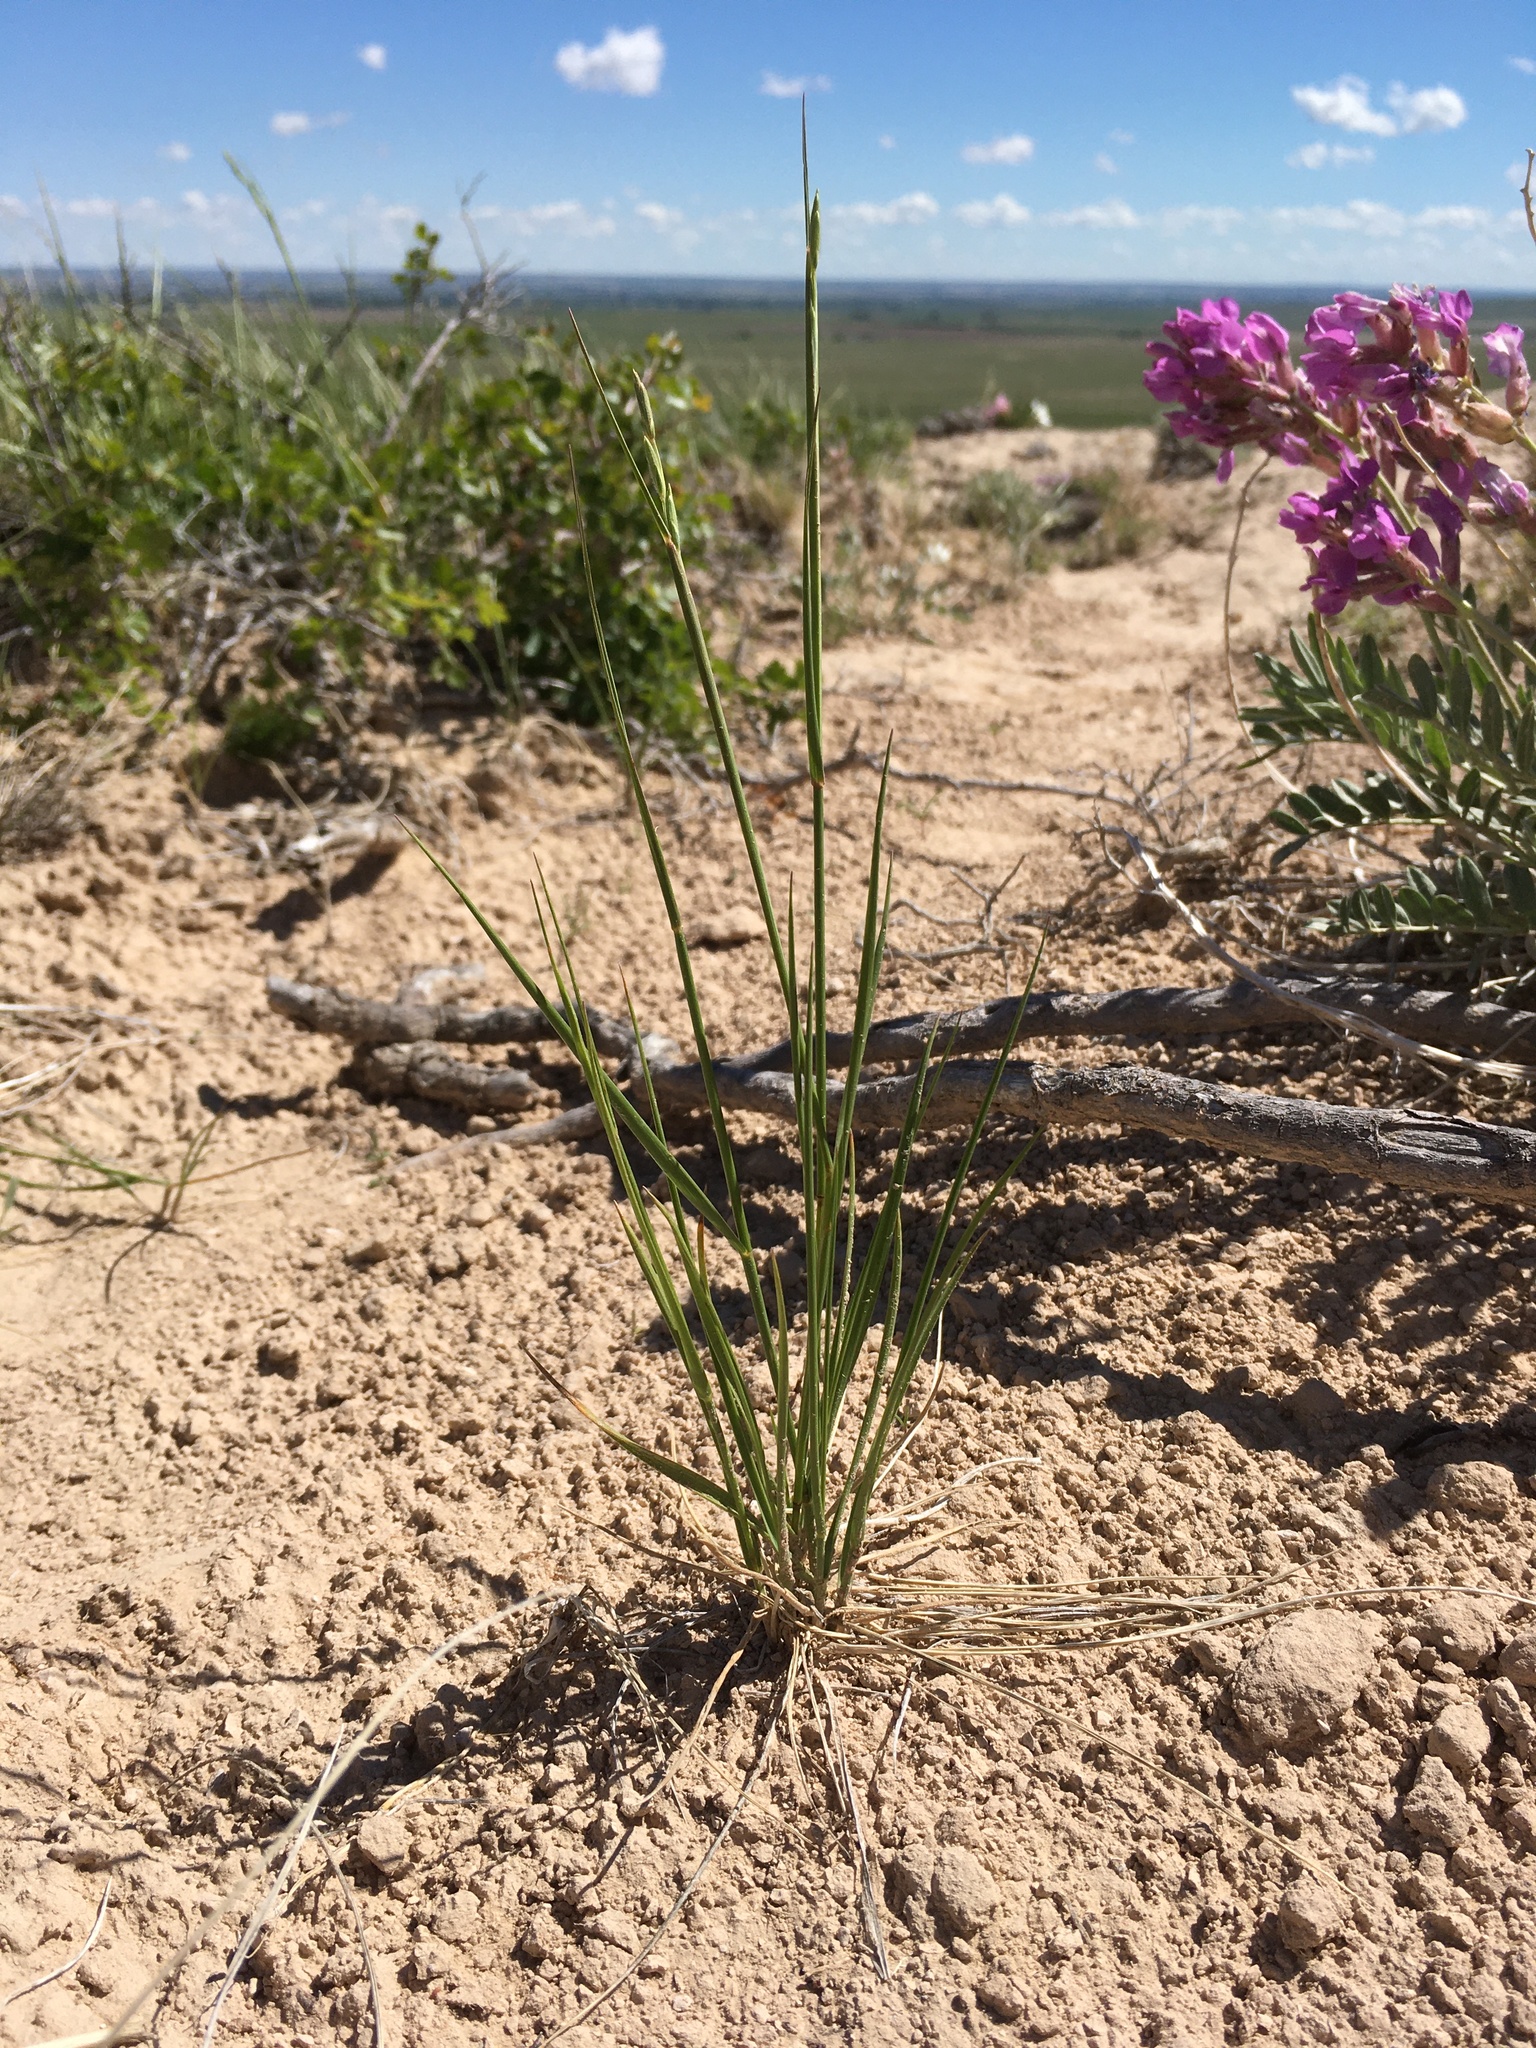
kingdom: Plantae
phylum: Tracheophyta
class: Liliopsida
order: Poales
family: Poaceae
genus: Elymus
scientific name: Elymus lanceolatus
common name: Thick-spike wheatgrass
